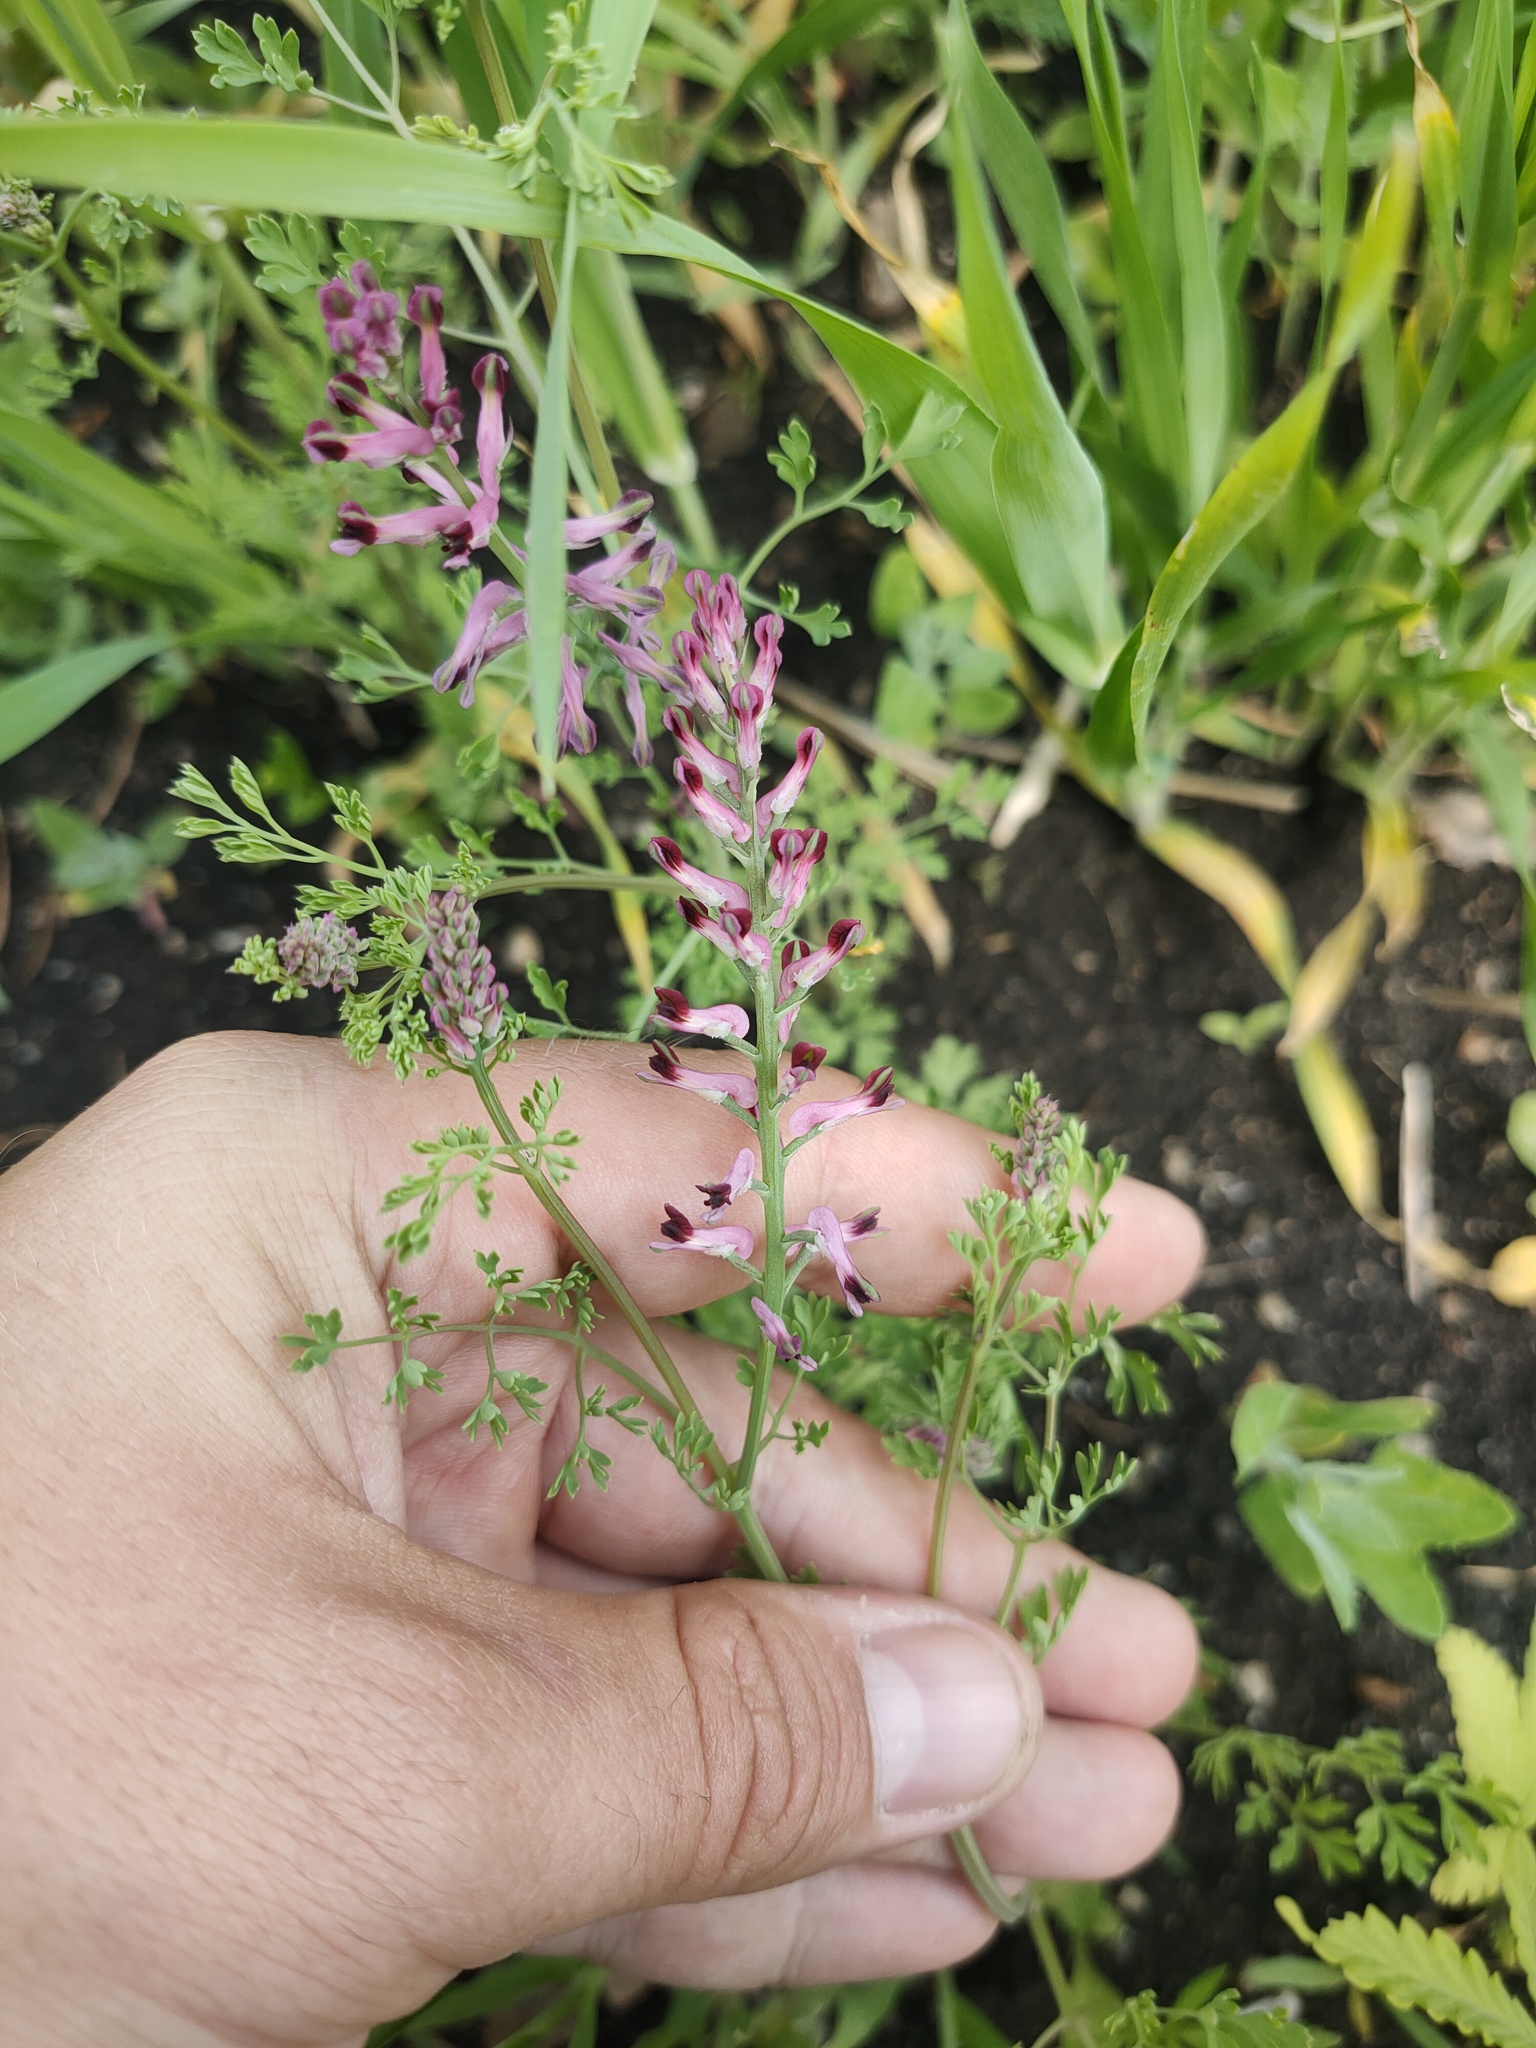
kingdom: Plantae
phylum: Tracheophyta
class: Magnoliopsida
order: Ranunculales
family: Papaveraceae
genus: Fumaria
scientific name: Fumaria officinalis
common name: Common fumitory
